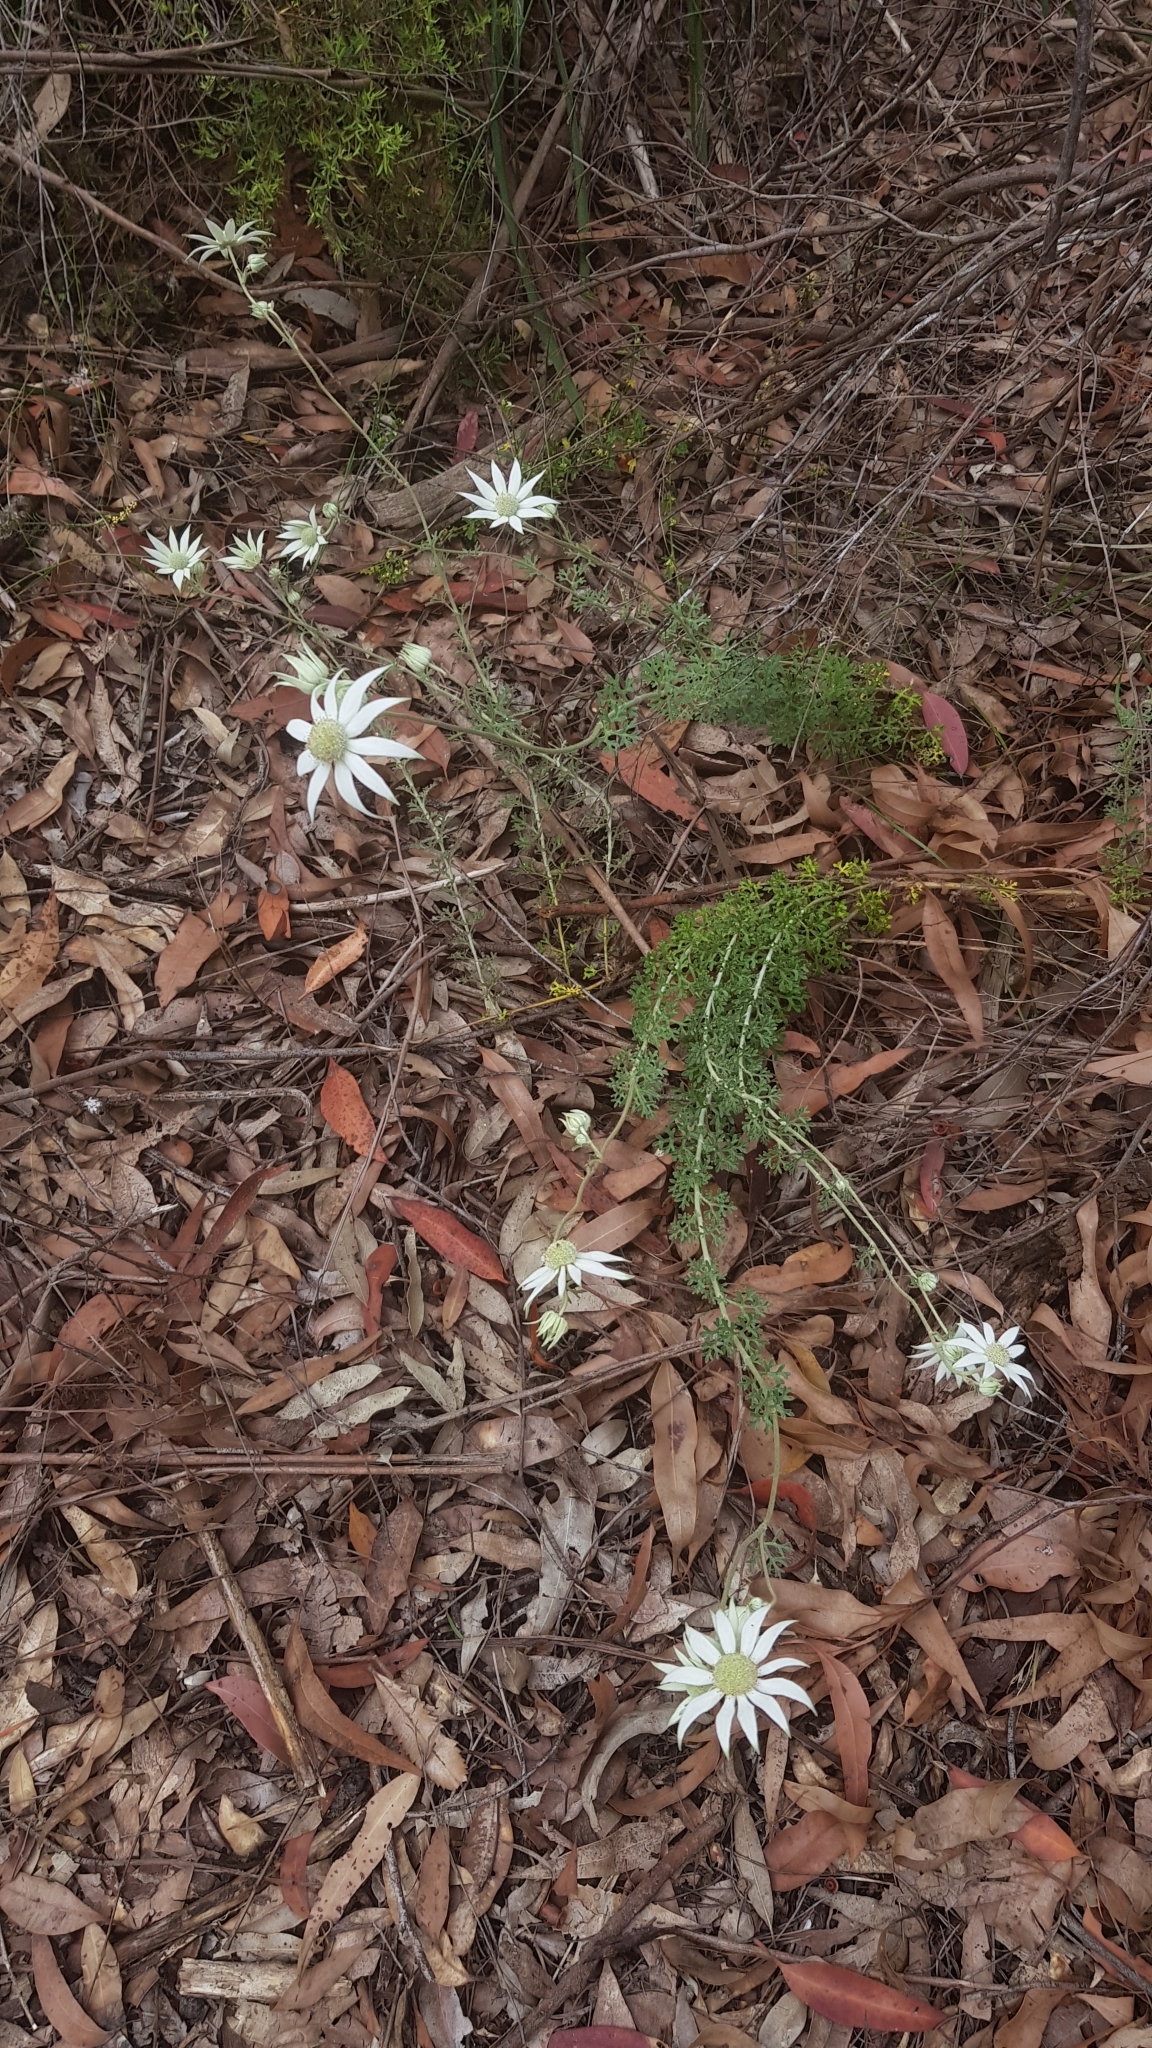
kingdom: Plantae
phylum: Tracheophyta
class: Magnoliopsida
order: Apiales
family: Apiaceae
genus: Actinotus
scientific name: Actinotus helianthi
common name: Flannel-flower
